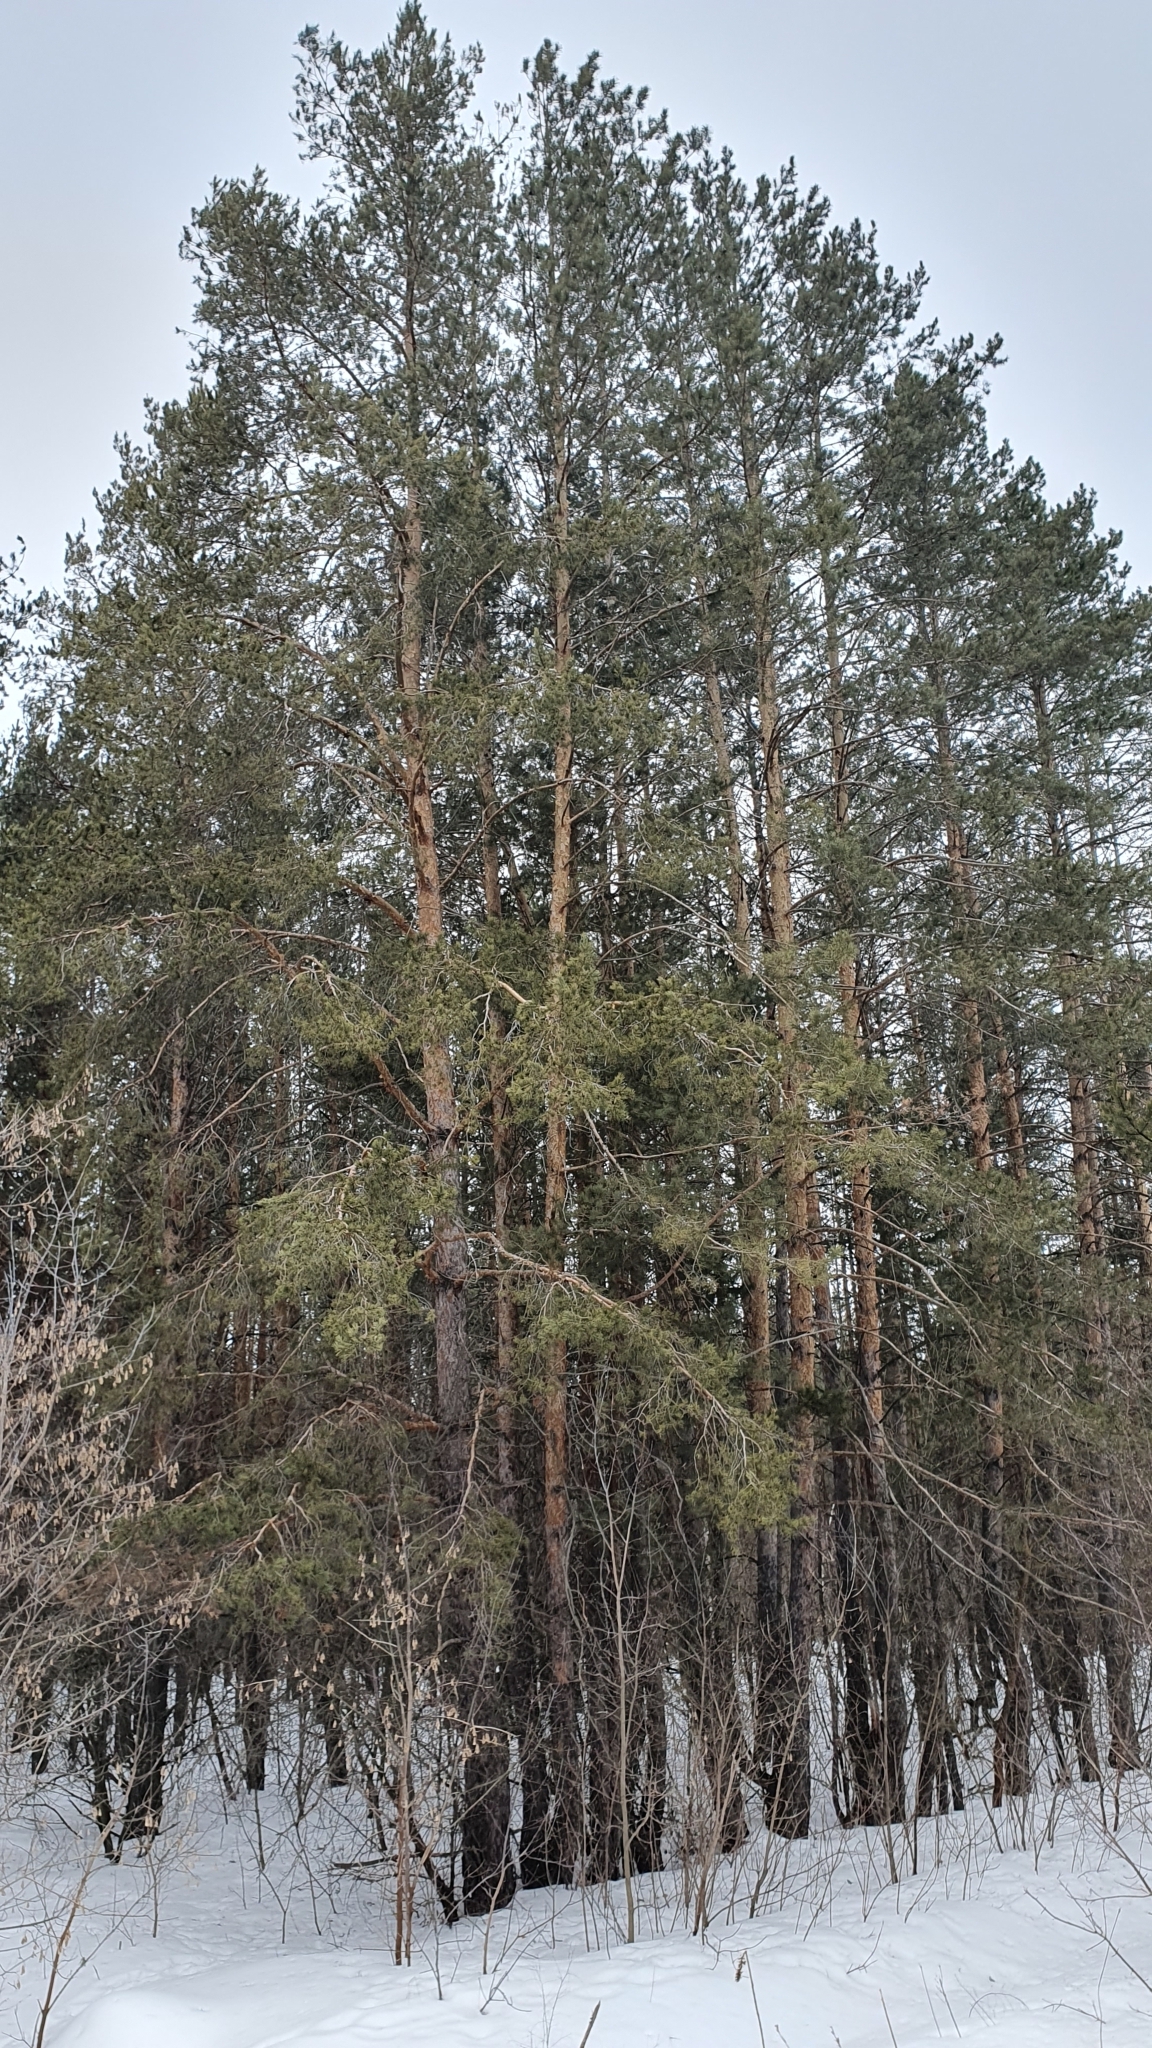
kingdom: Plantae
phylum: Tracheophyta
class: Pinopsida
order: Pinales
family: Pinaceae
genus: Pinus
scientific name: Pinus sylvestris
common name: Scots pine
